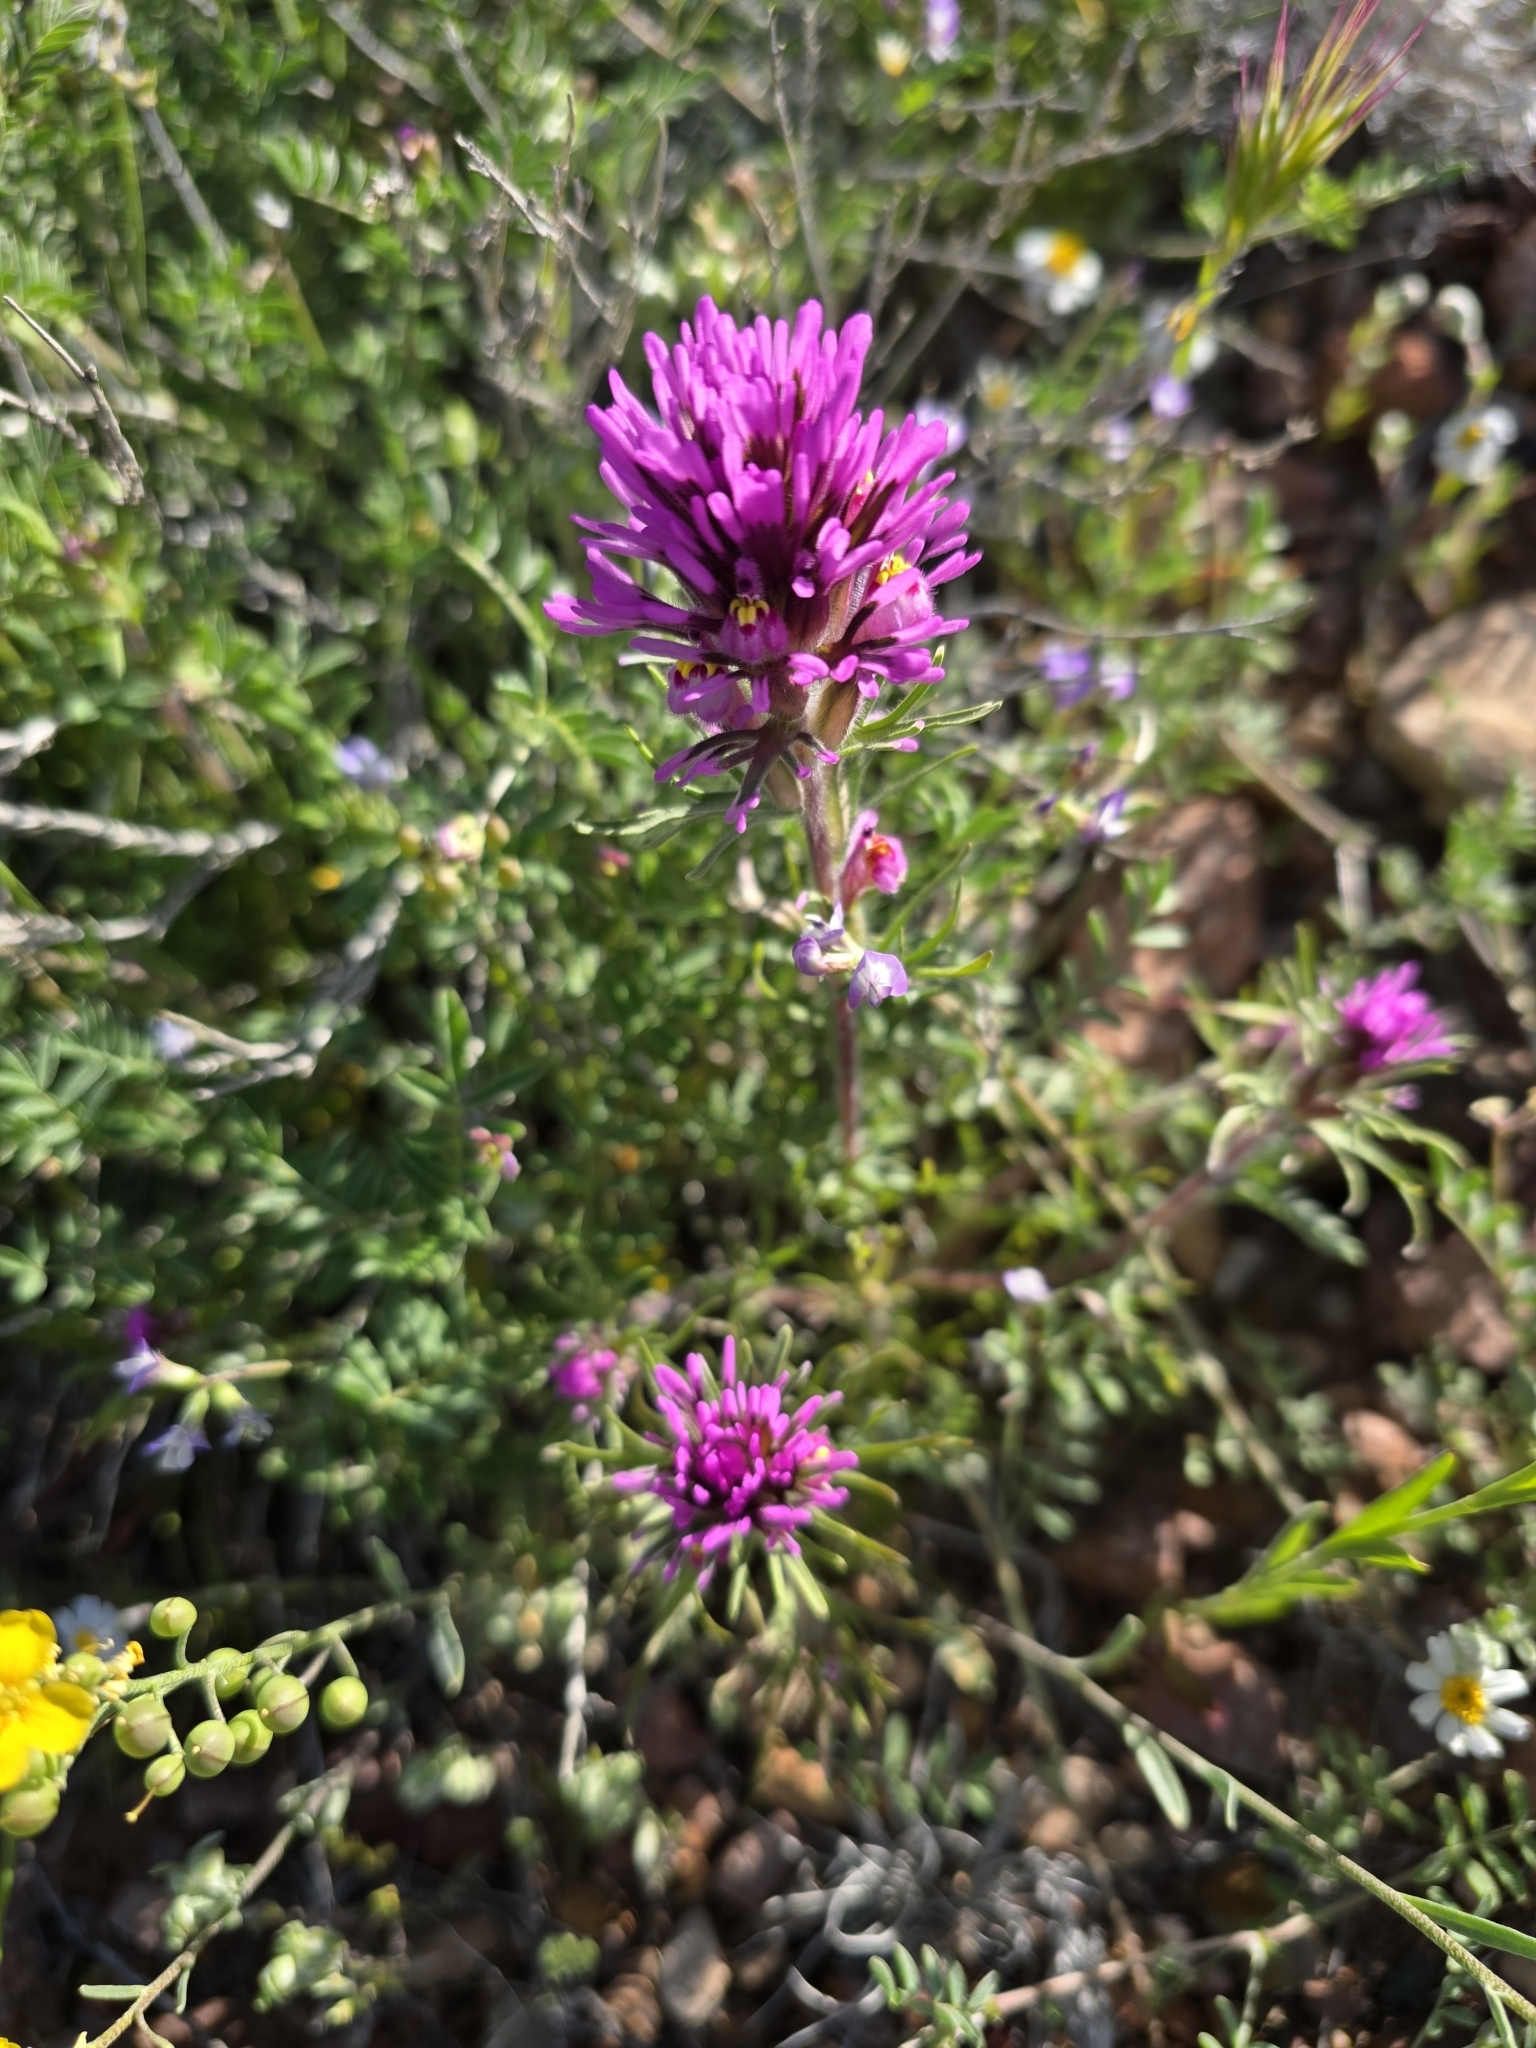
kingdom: Plantae
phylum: Tracheophyta
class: Magnoliopsida
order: Lamiales
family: Orobanchaceae
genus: Castilleja
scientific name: Castilleja exserta
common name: Purple owl-clover
